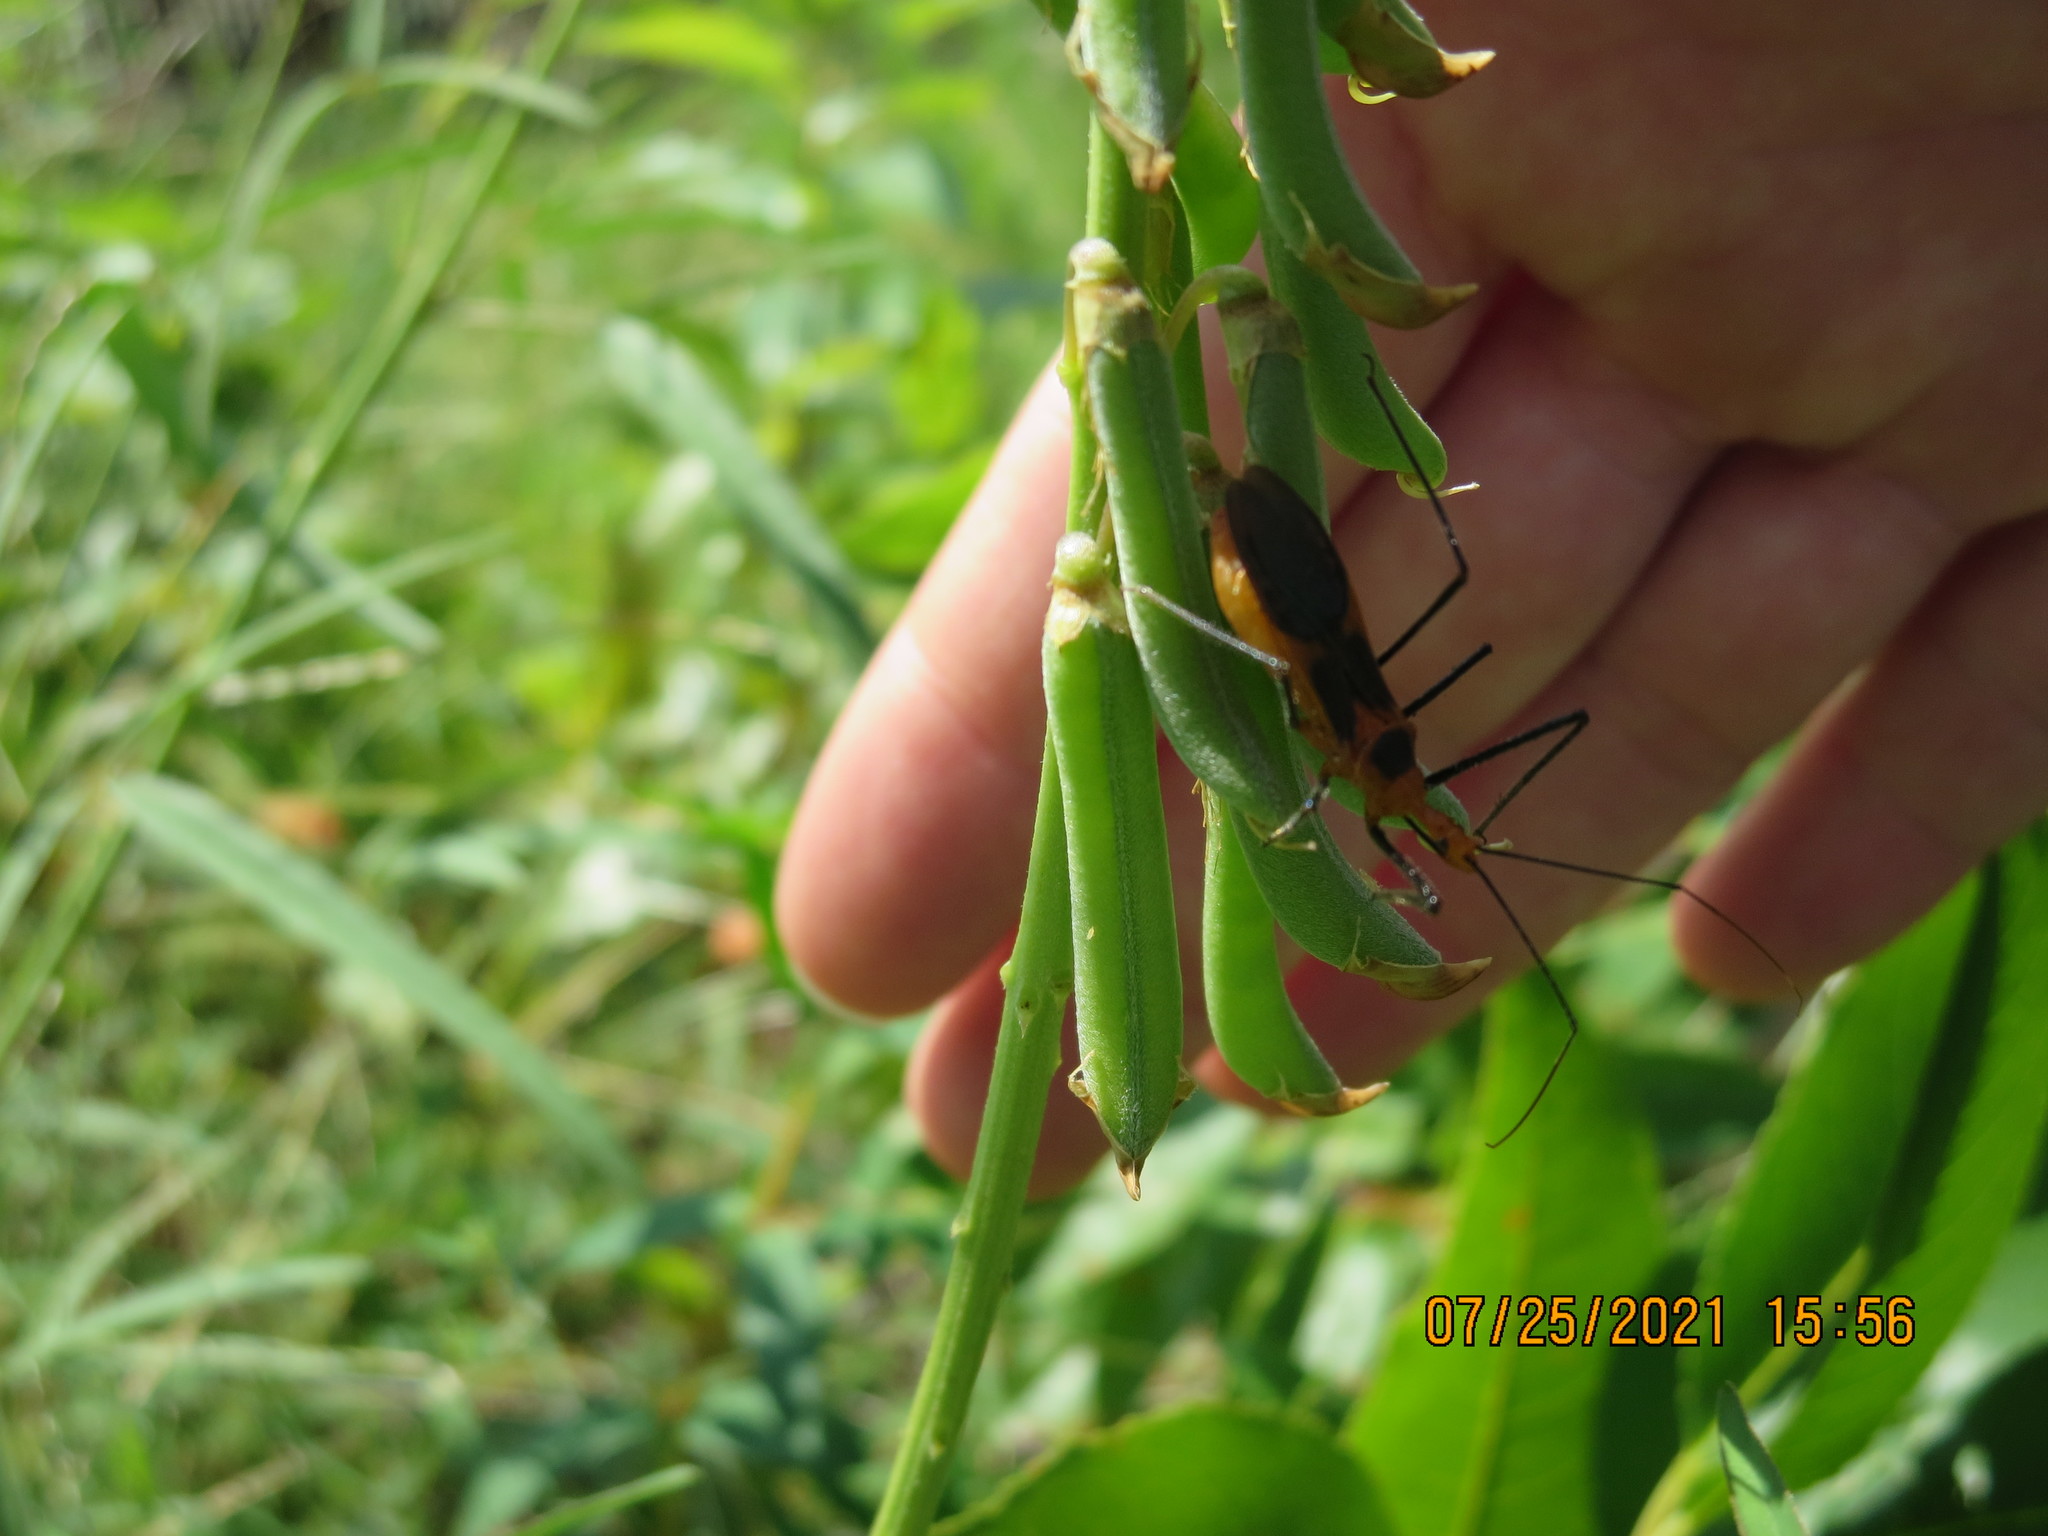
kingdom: Animalia
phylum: Arthropoda
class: Insecta
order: Hemiptera
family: Reduviidae
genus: Zelus
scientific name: Zelus longipes
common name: Milkweed assassin bug
